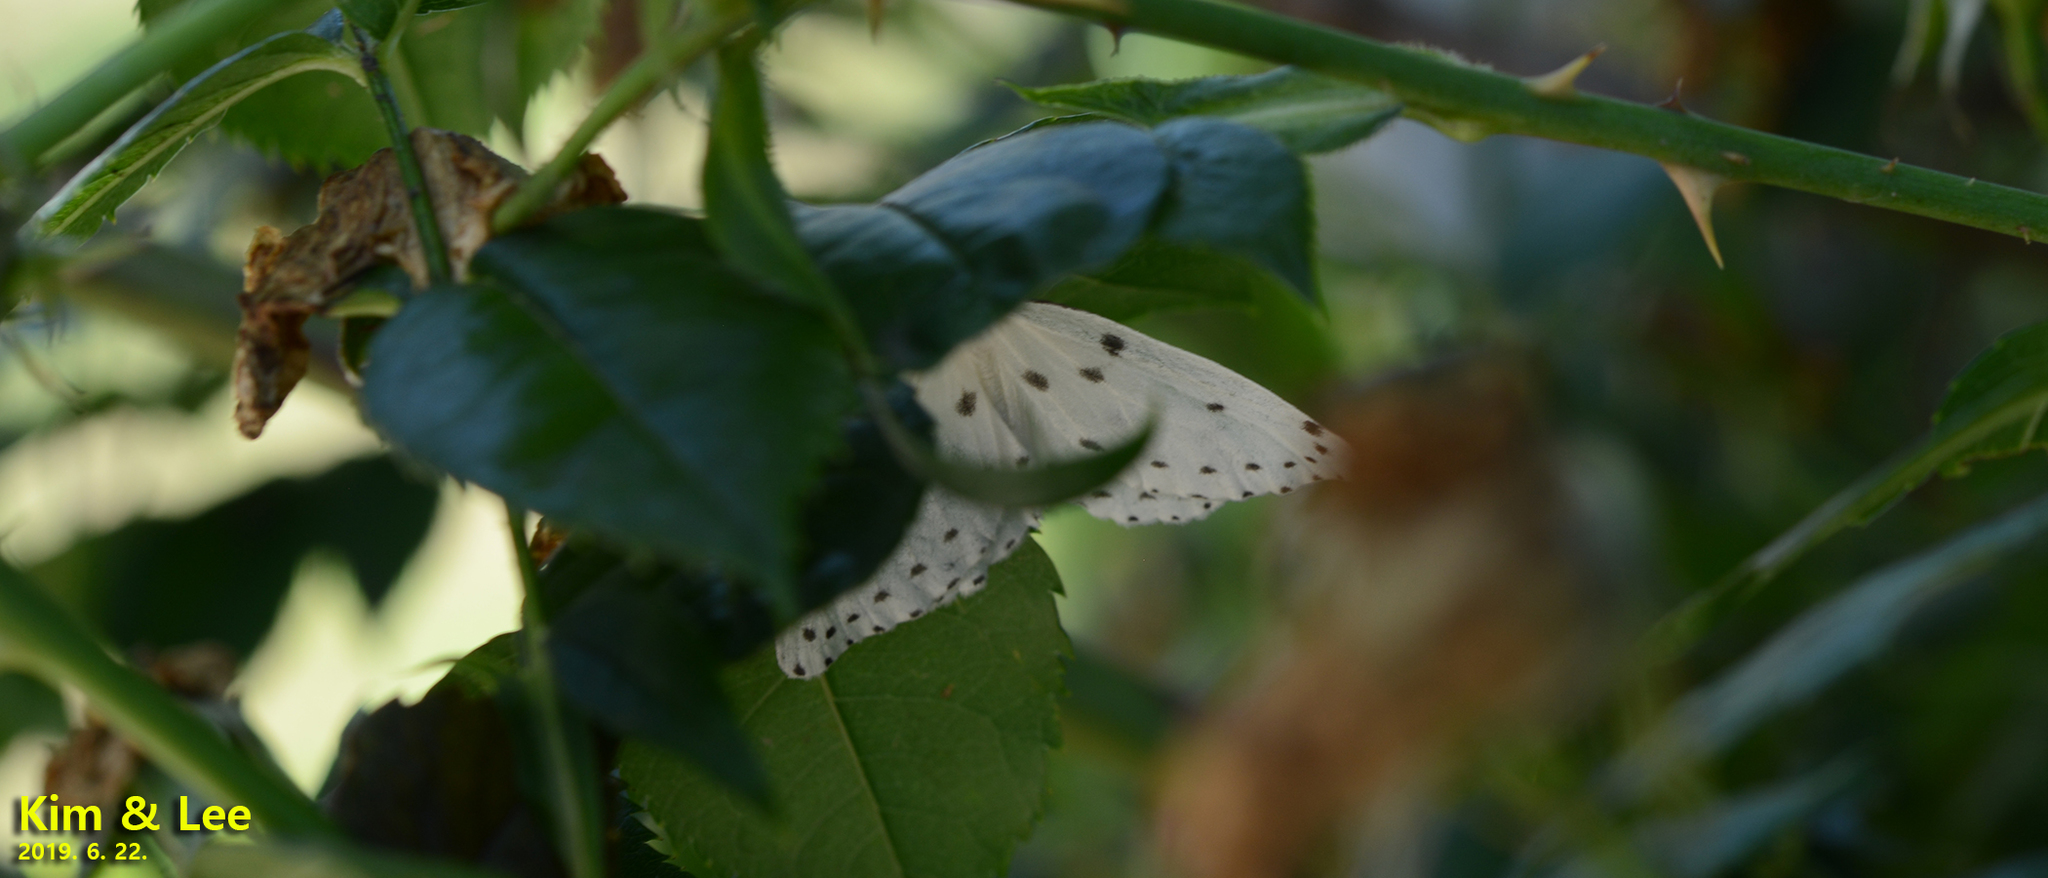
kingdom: Animalia
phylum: Arthropoda
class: Insecta
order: Lepidoptera
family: Geometridae
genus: Naxa
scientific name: Naxa seriaria
